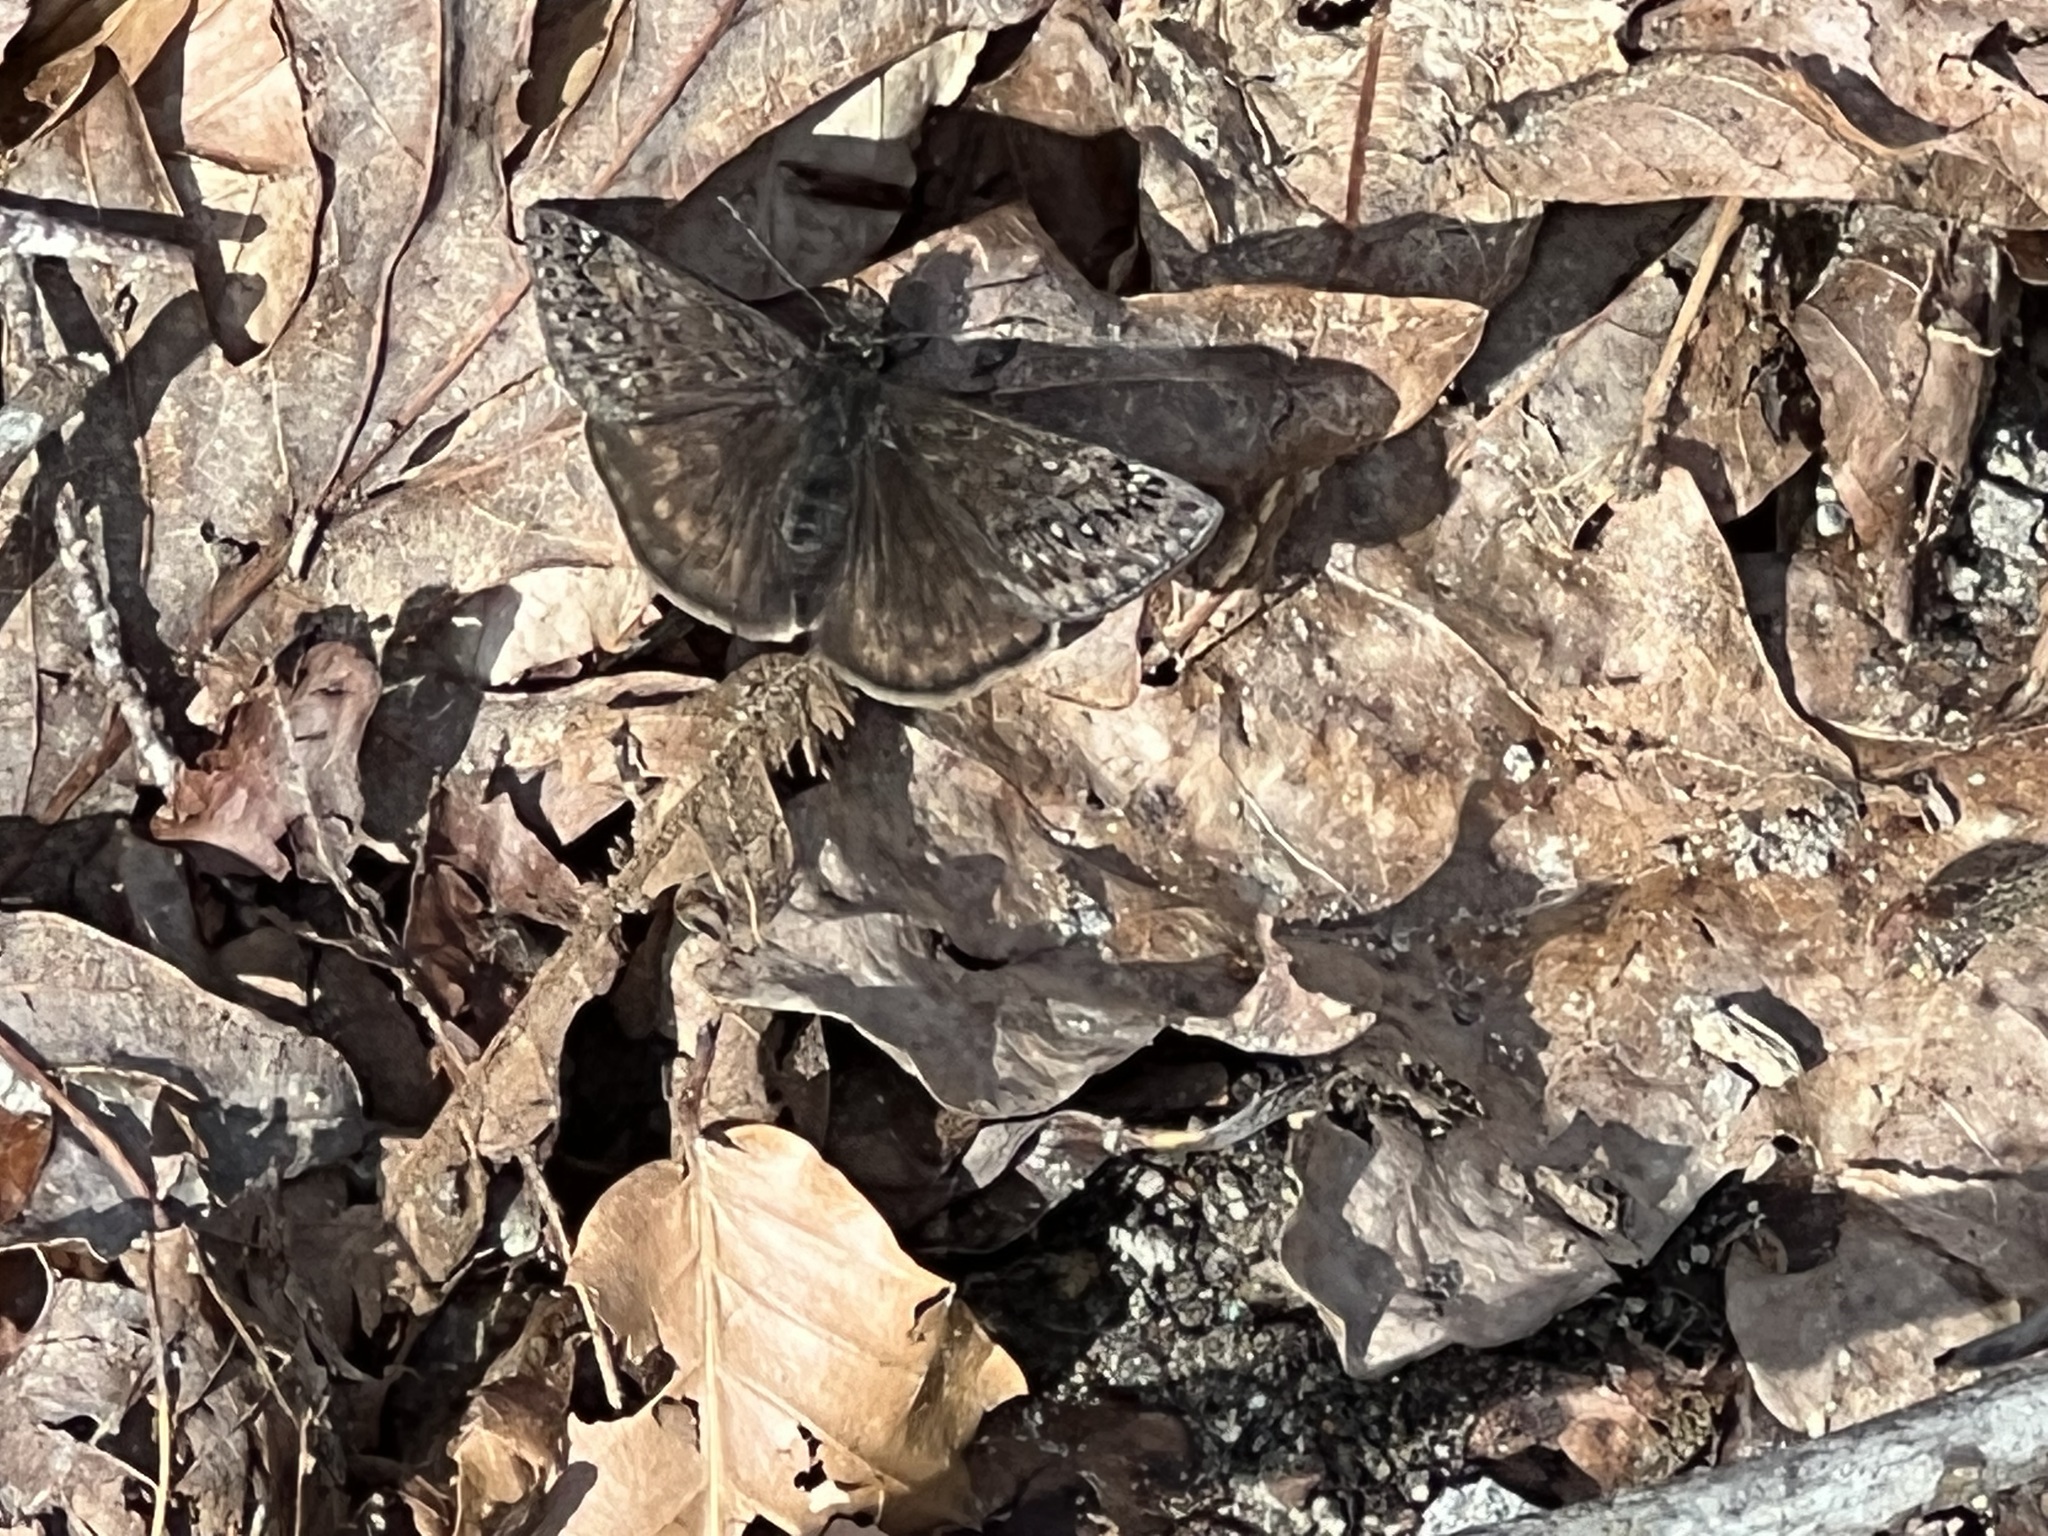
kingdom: Animalia
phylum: Arthropoda
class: Insecta
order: Lepidoptera
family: Hesperiidae
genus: Erynnis
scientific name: Erynnis juvenalis
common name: Juvenal's duskywing
